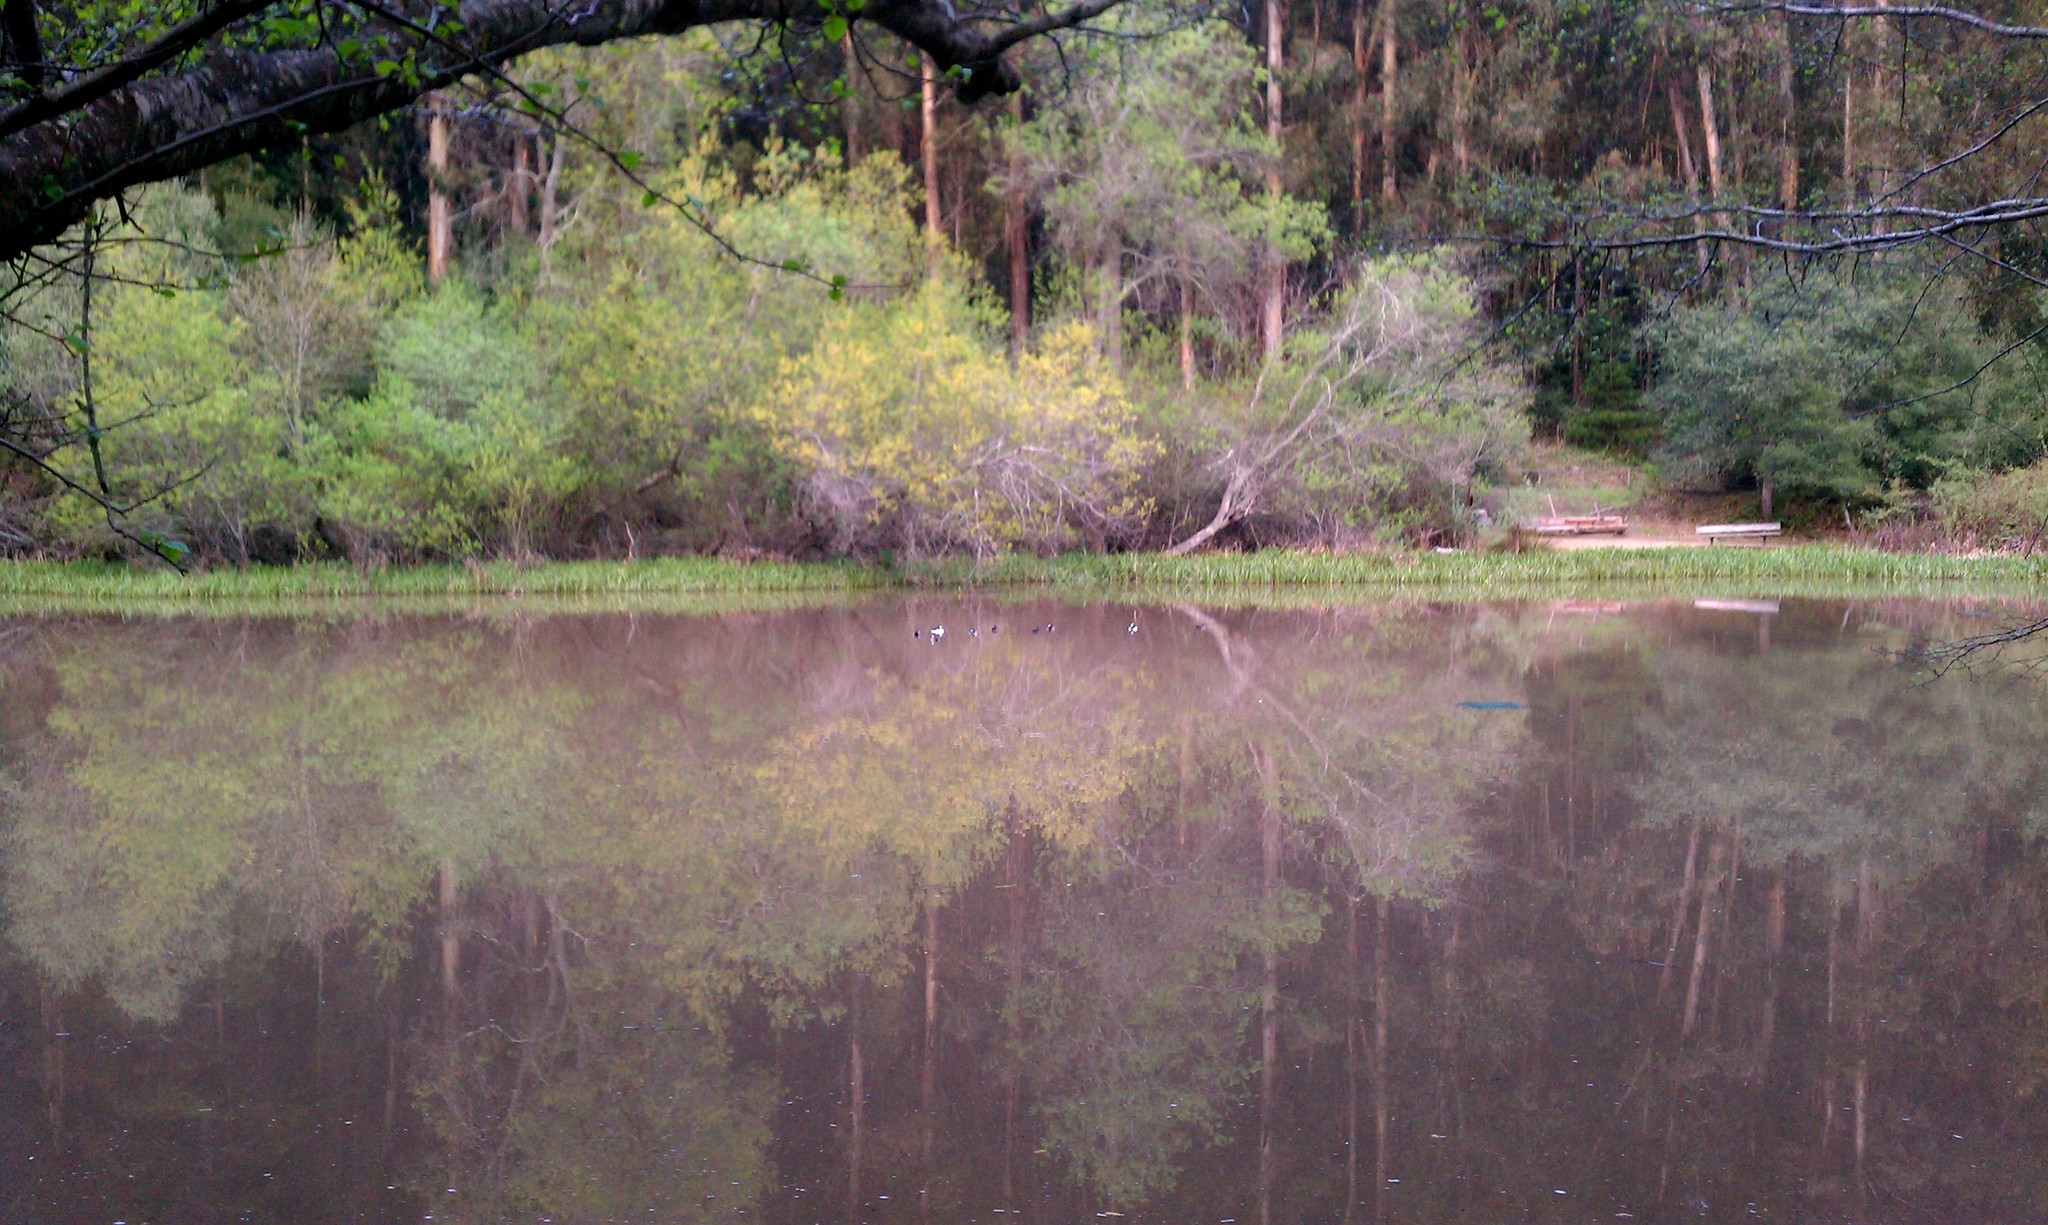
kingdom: Animalia
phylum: Chordata
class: Aves
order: Anseriformes
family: Anatidae
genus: Bucephala
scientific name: Bucephala albeola
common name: Bufflehead
